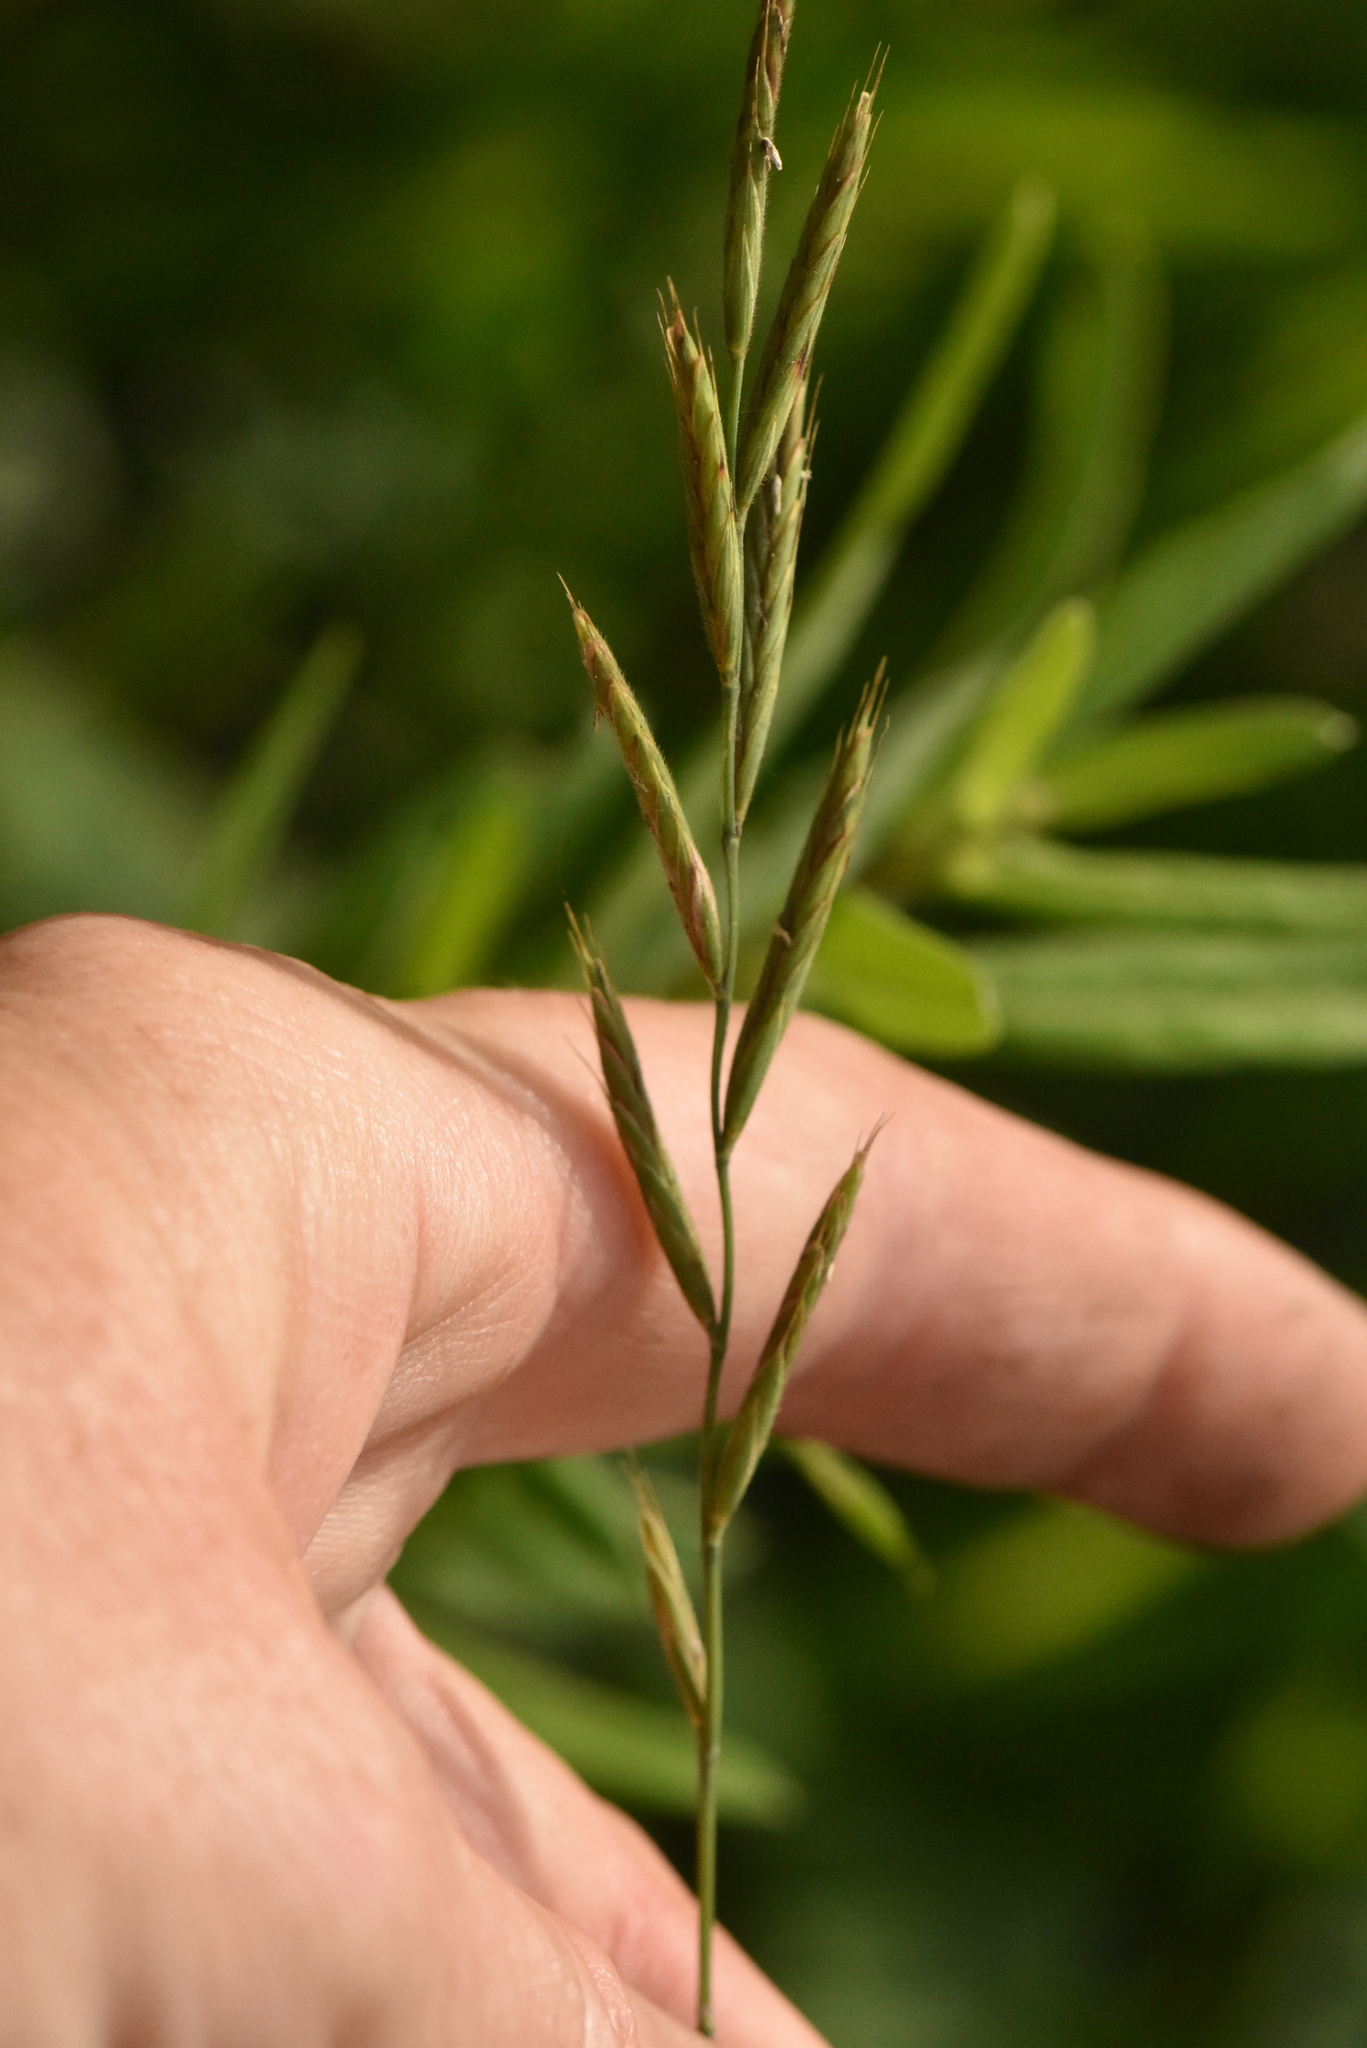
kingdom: Plantae
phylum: Tracheophyta
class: Liliopsida
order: Poales
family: Poaceae
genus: Brachypodium
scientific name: Brachypodium pinnatum
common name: Tor grass
